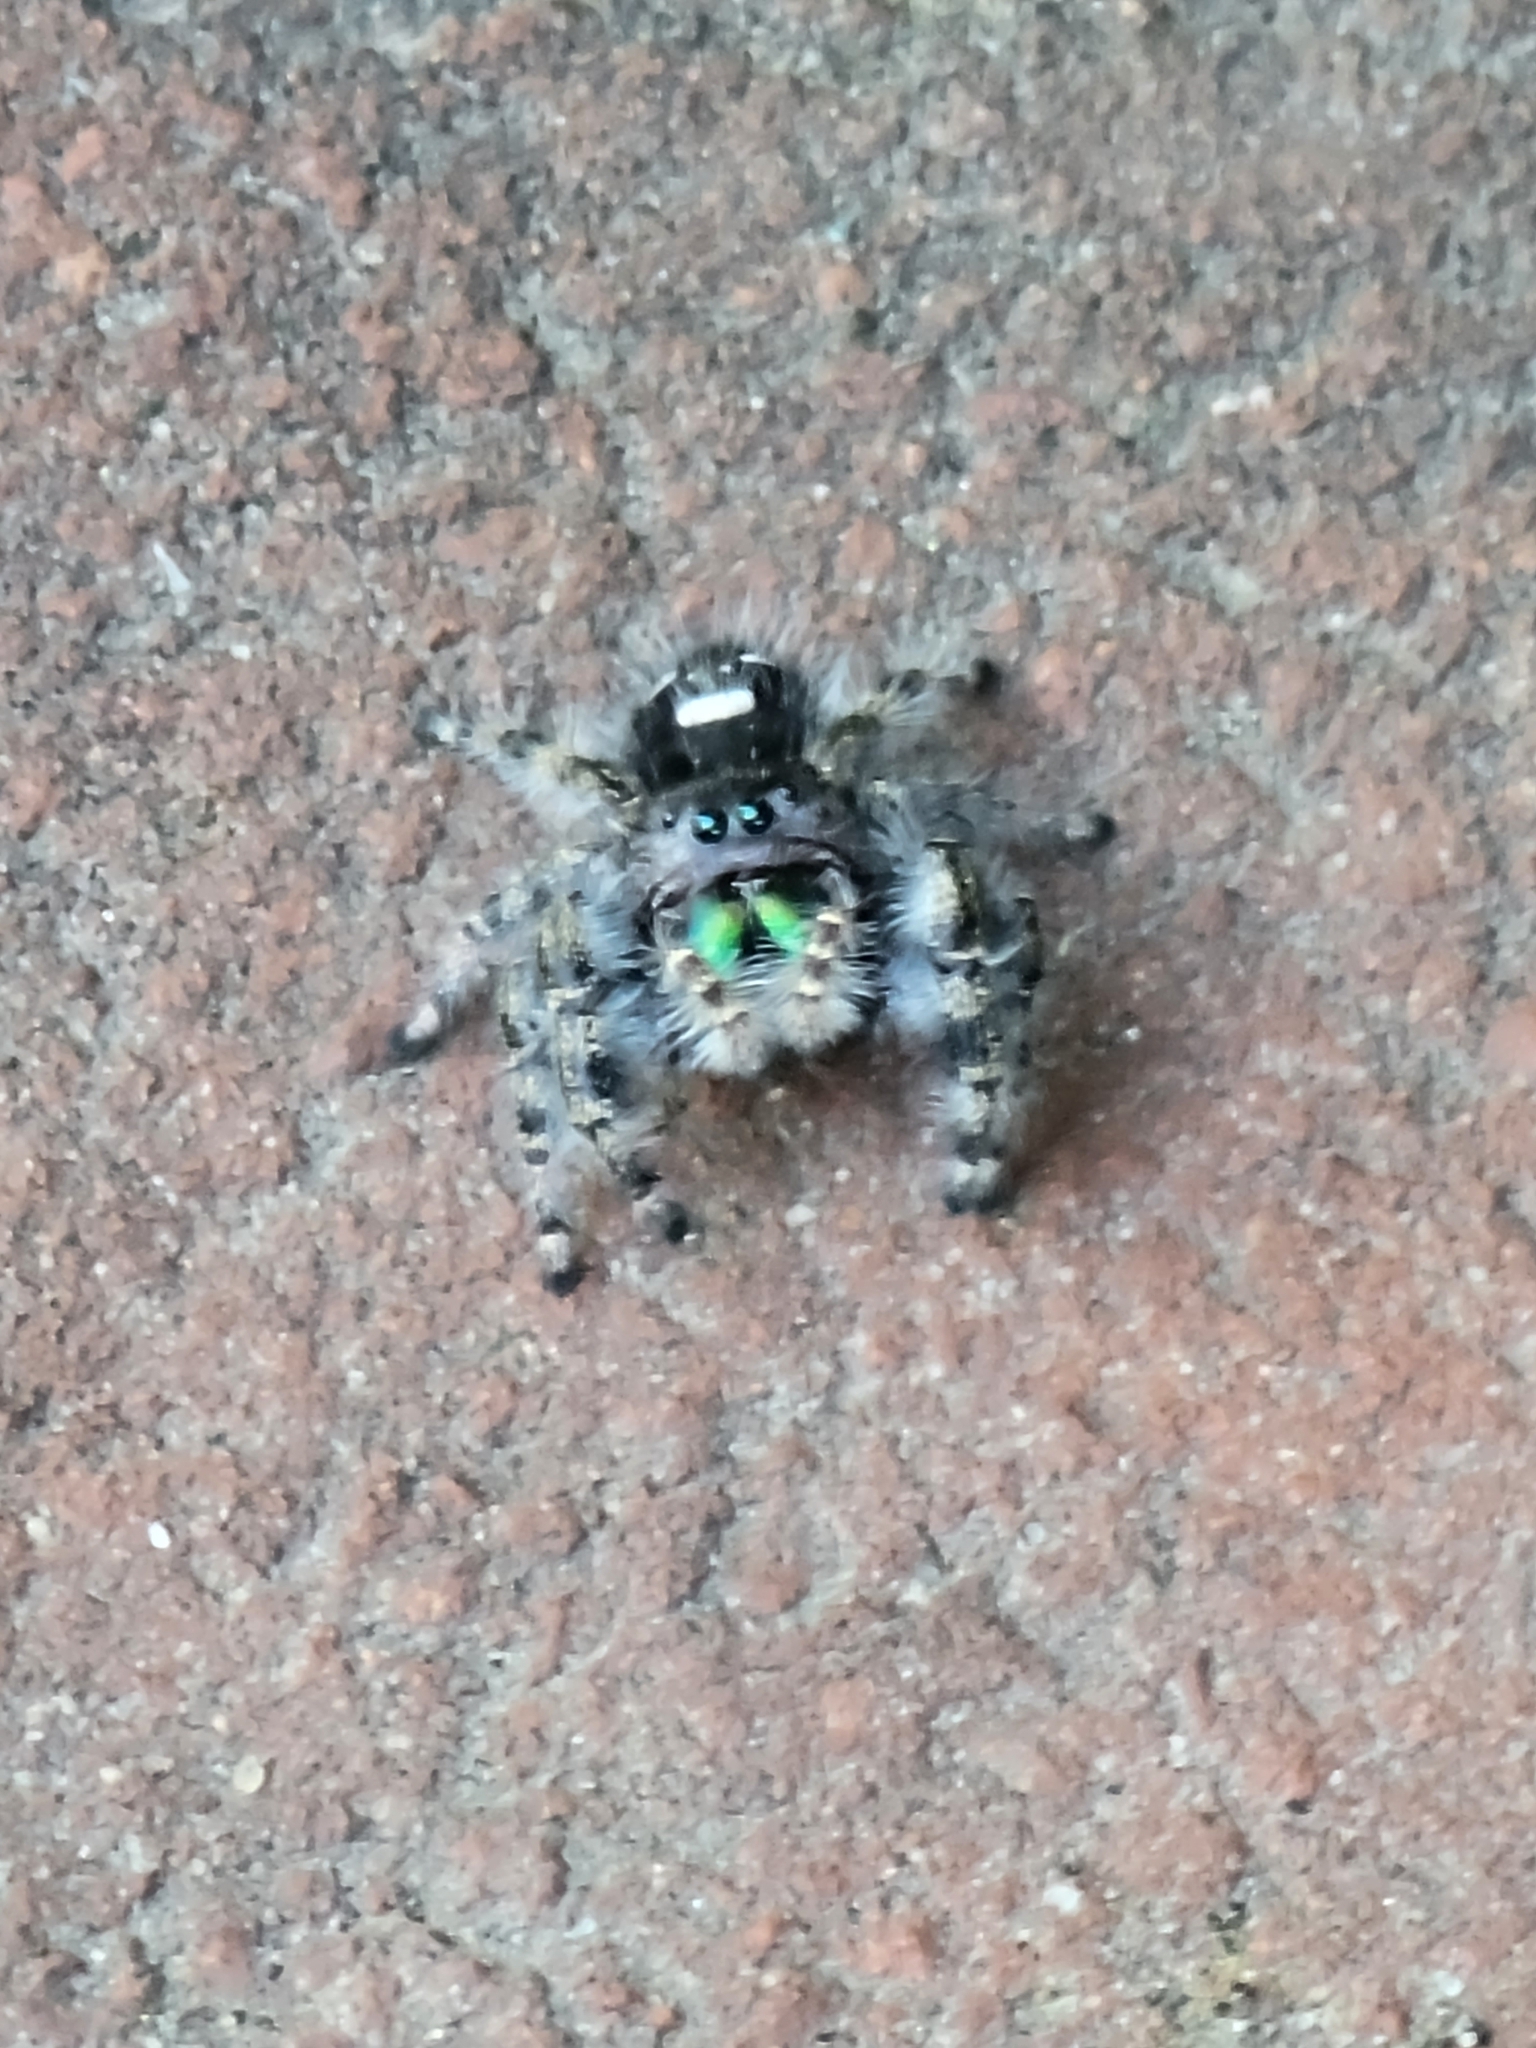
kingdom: Animalia
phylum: Arthropoda
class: Arachnida
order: Araneae
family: Salticidae
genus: Phidippus
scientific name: Phidippus audax
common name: Bold jumper
